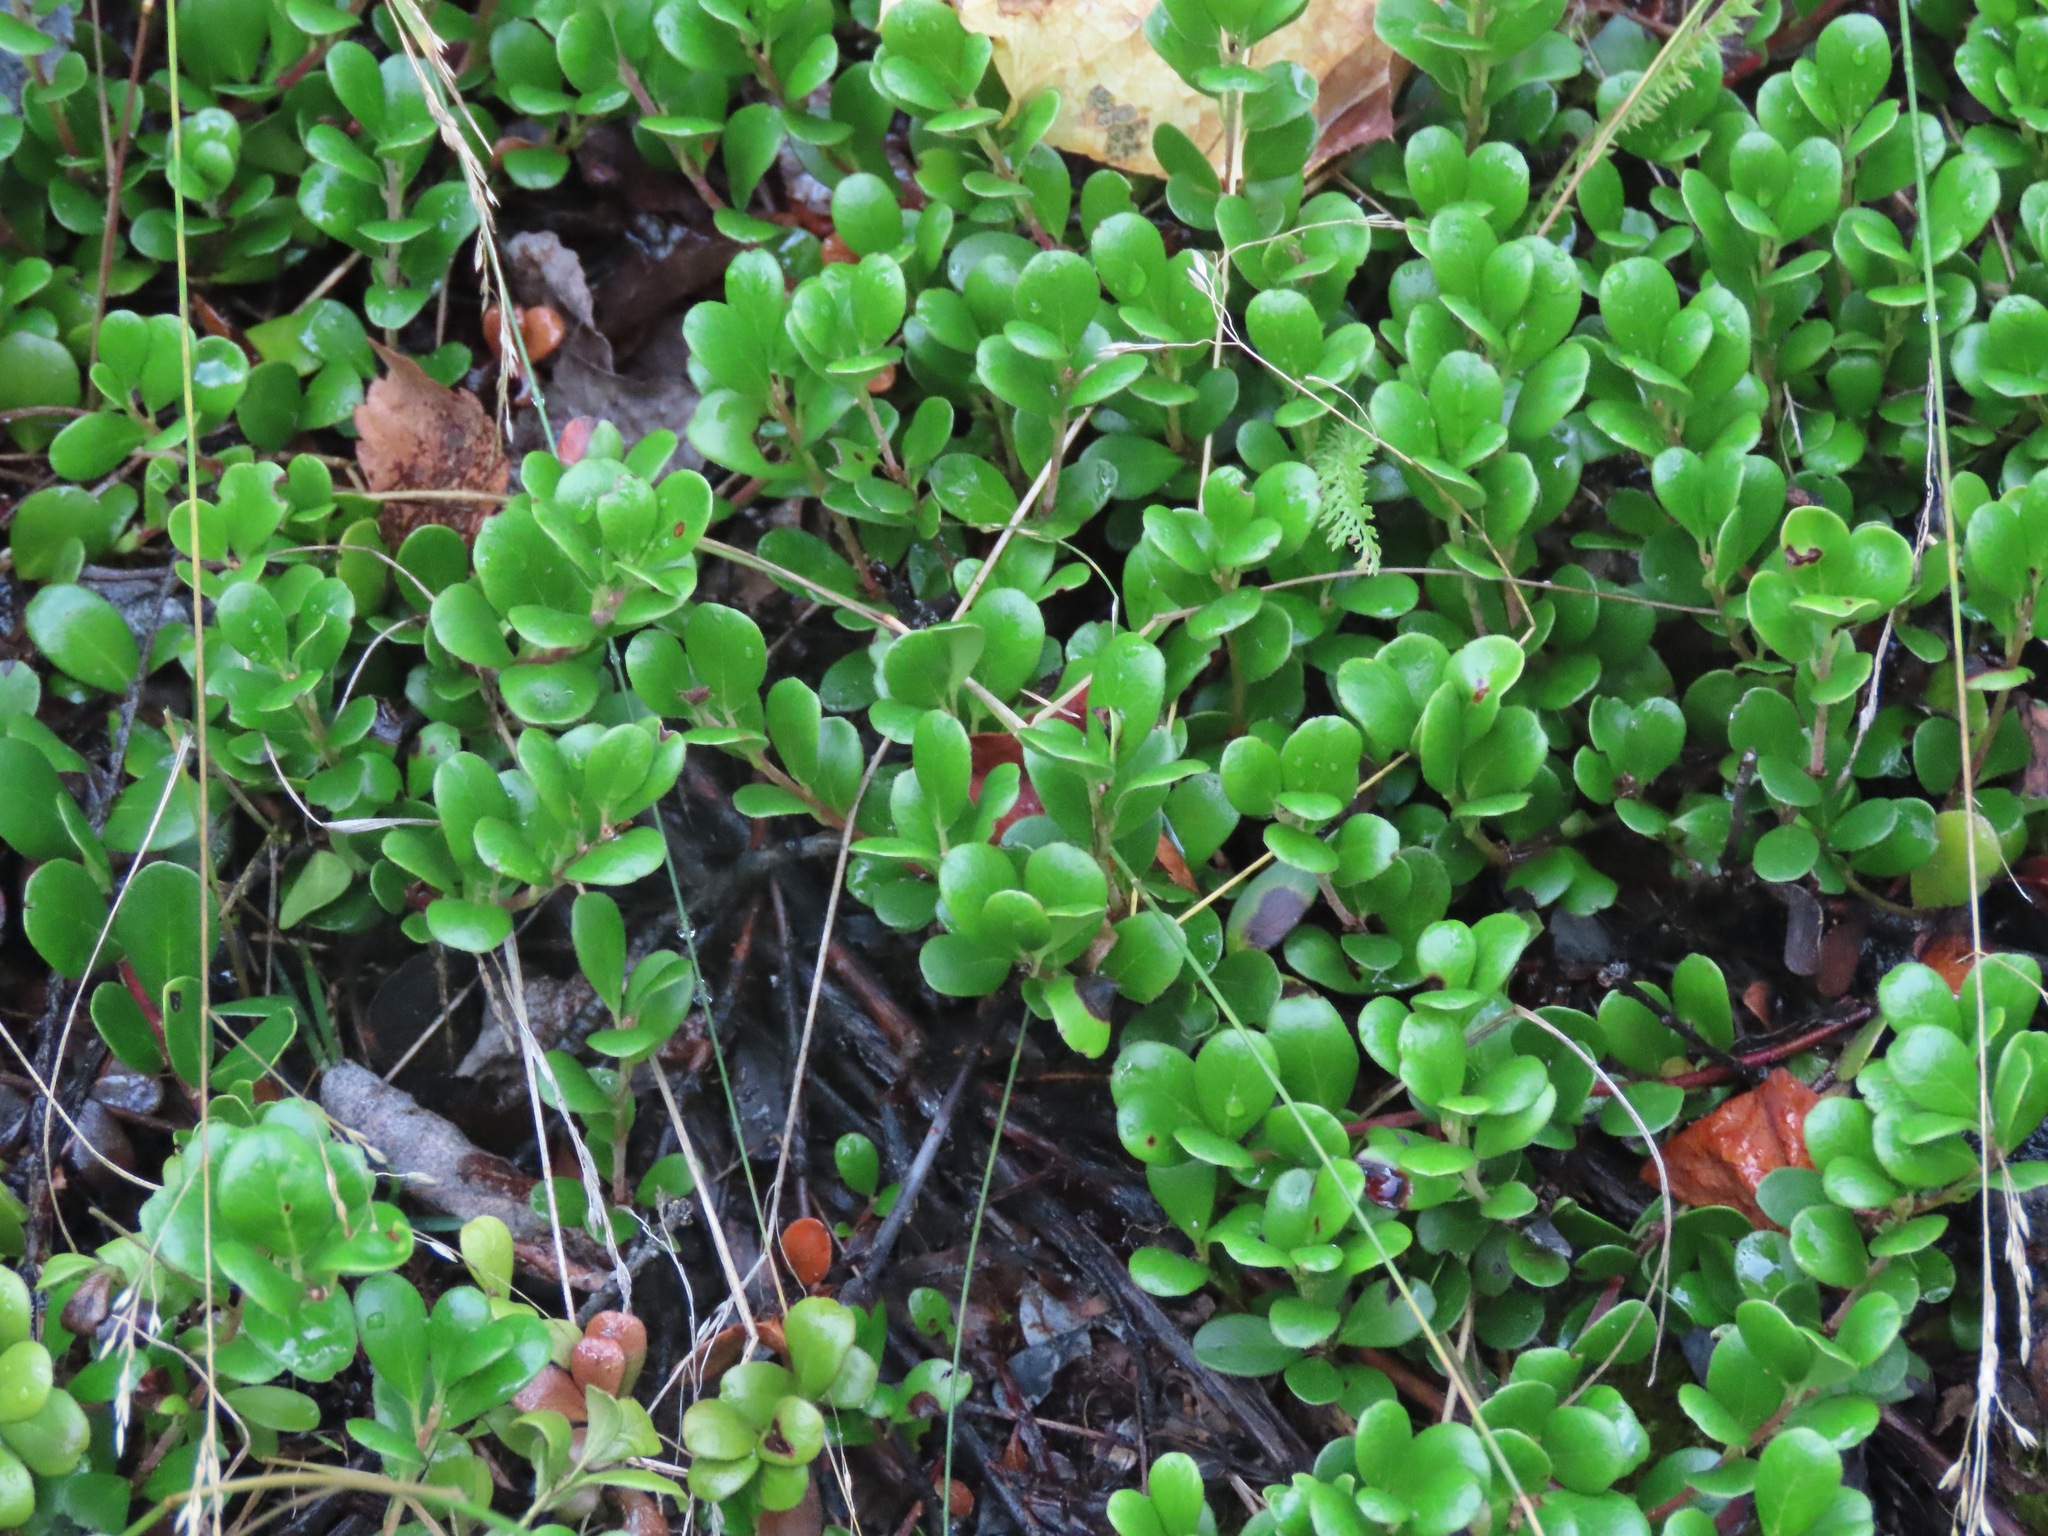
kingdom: Plantae
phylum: Tracheophyta
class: Magnoliopsida
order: Ericales
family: Ericaceae
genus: Arctostaphylos
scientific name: Arctostaphylos uva-ursi
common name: Bearberry
